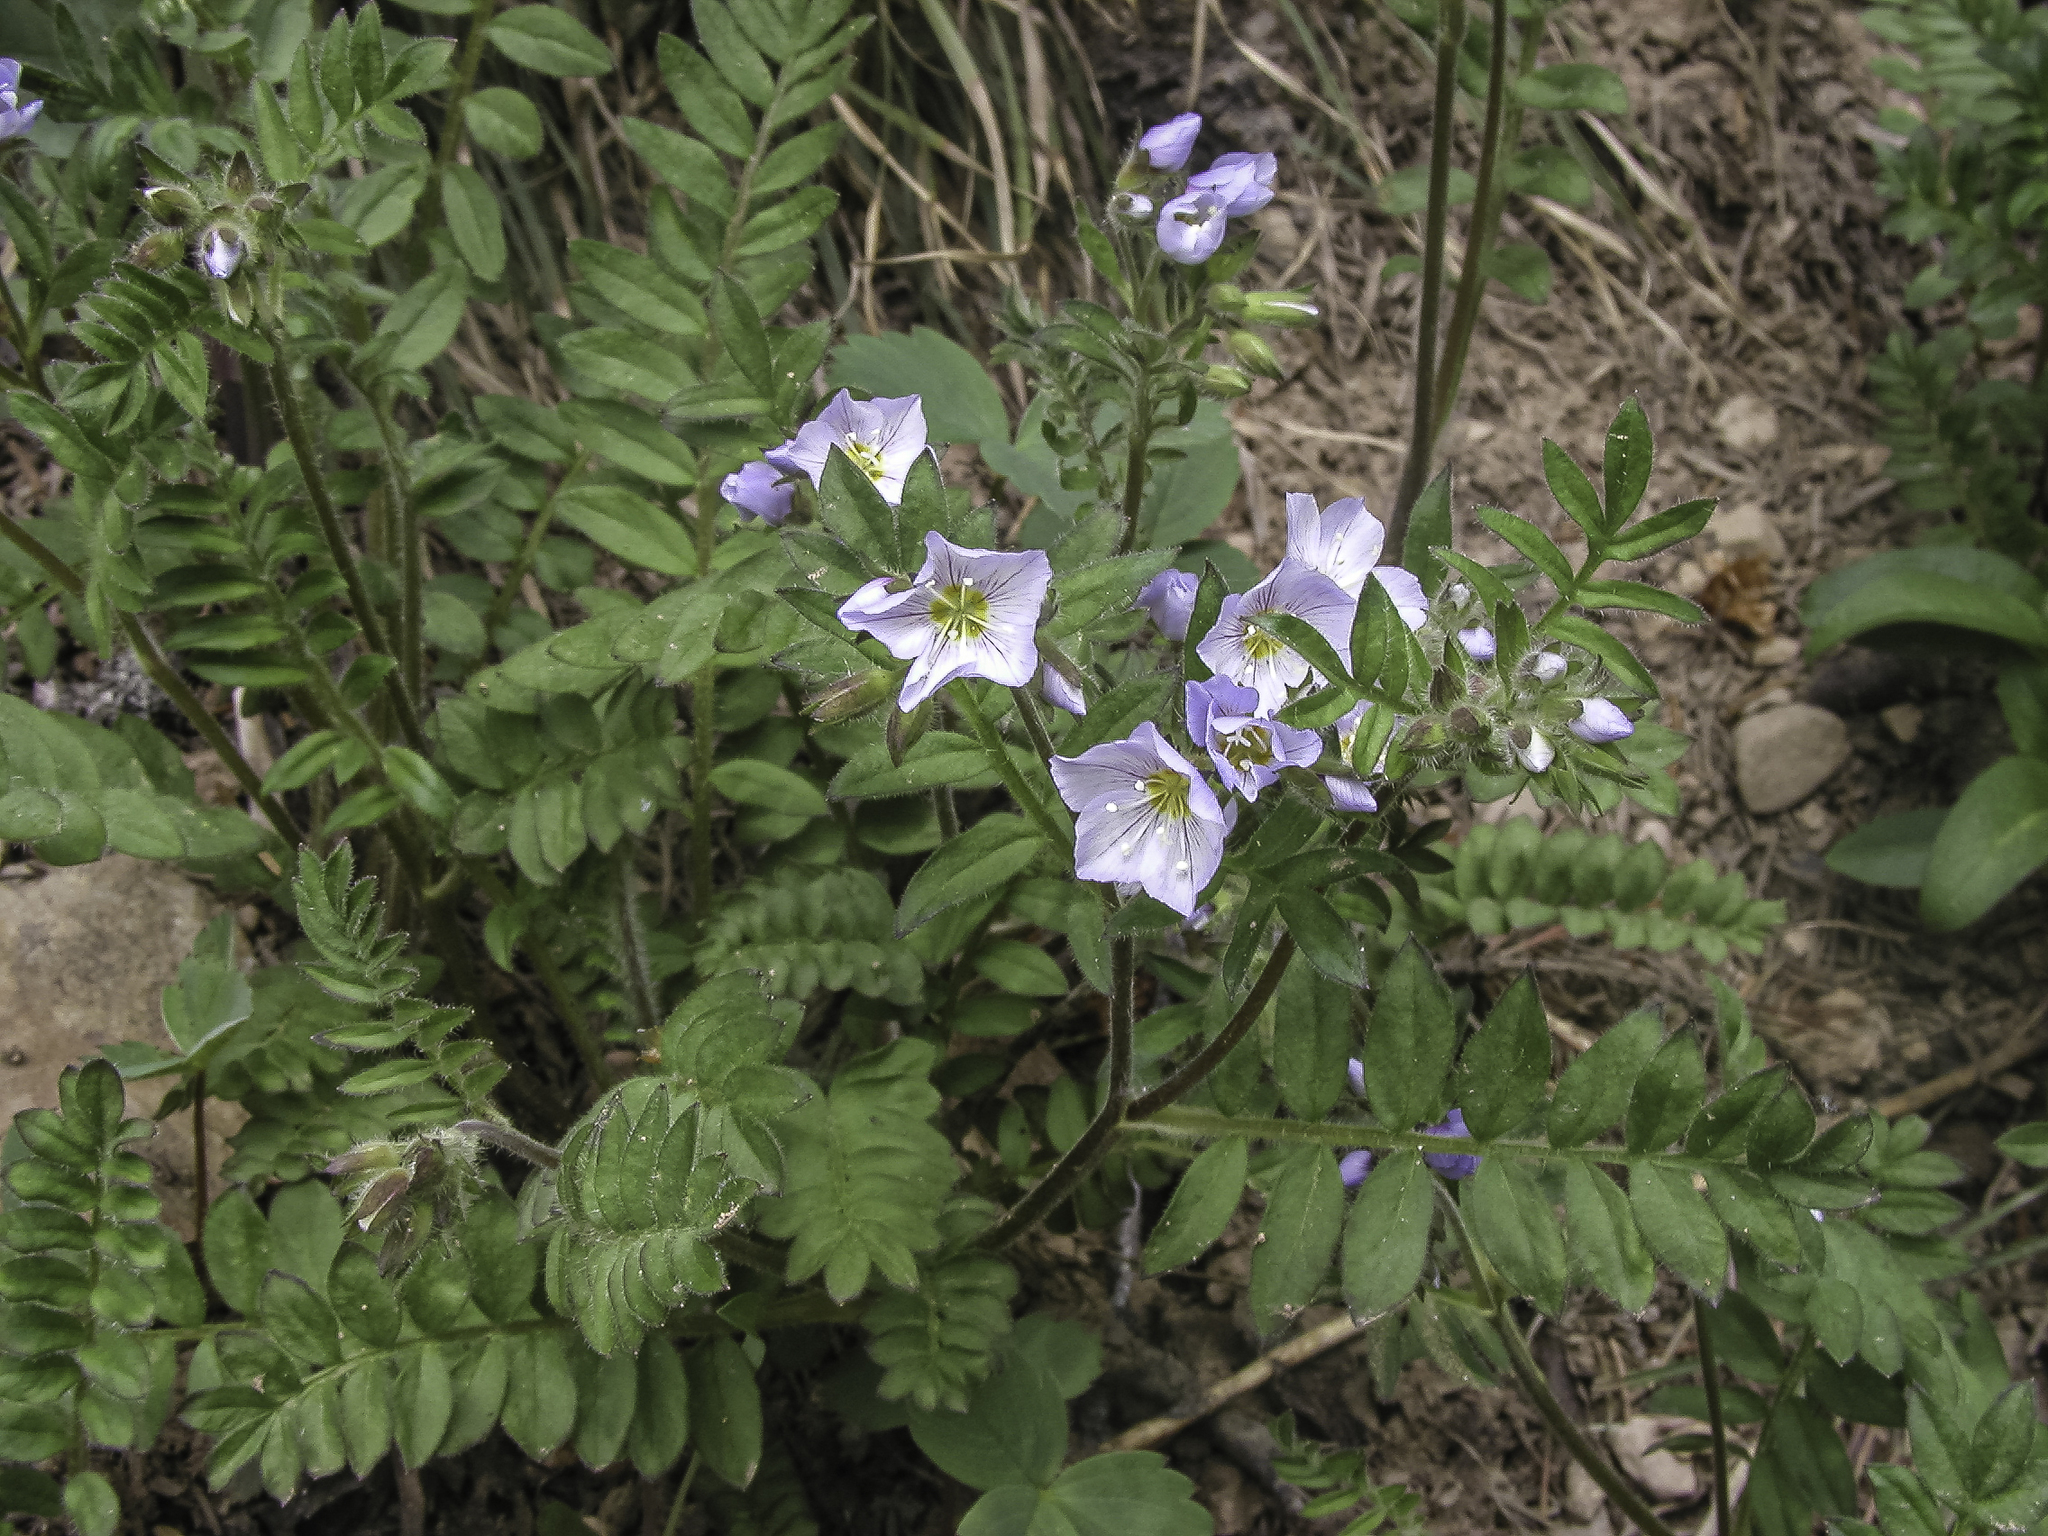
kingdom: Plantae
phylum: Tracheophyta
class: Magnoliopsida
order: Ericales
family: Polemoniaceae
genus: Polemonium
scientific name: Polemonium pulcherrimum
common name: Short jacob's-ladder
